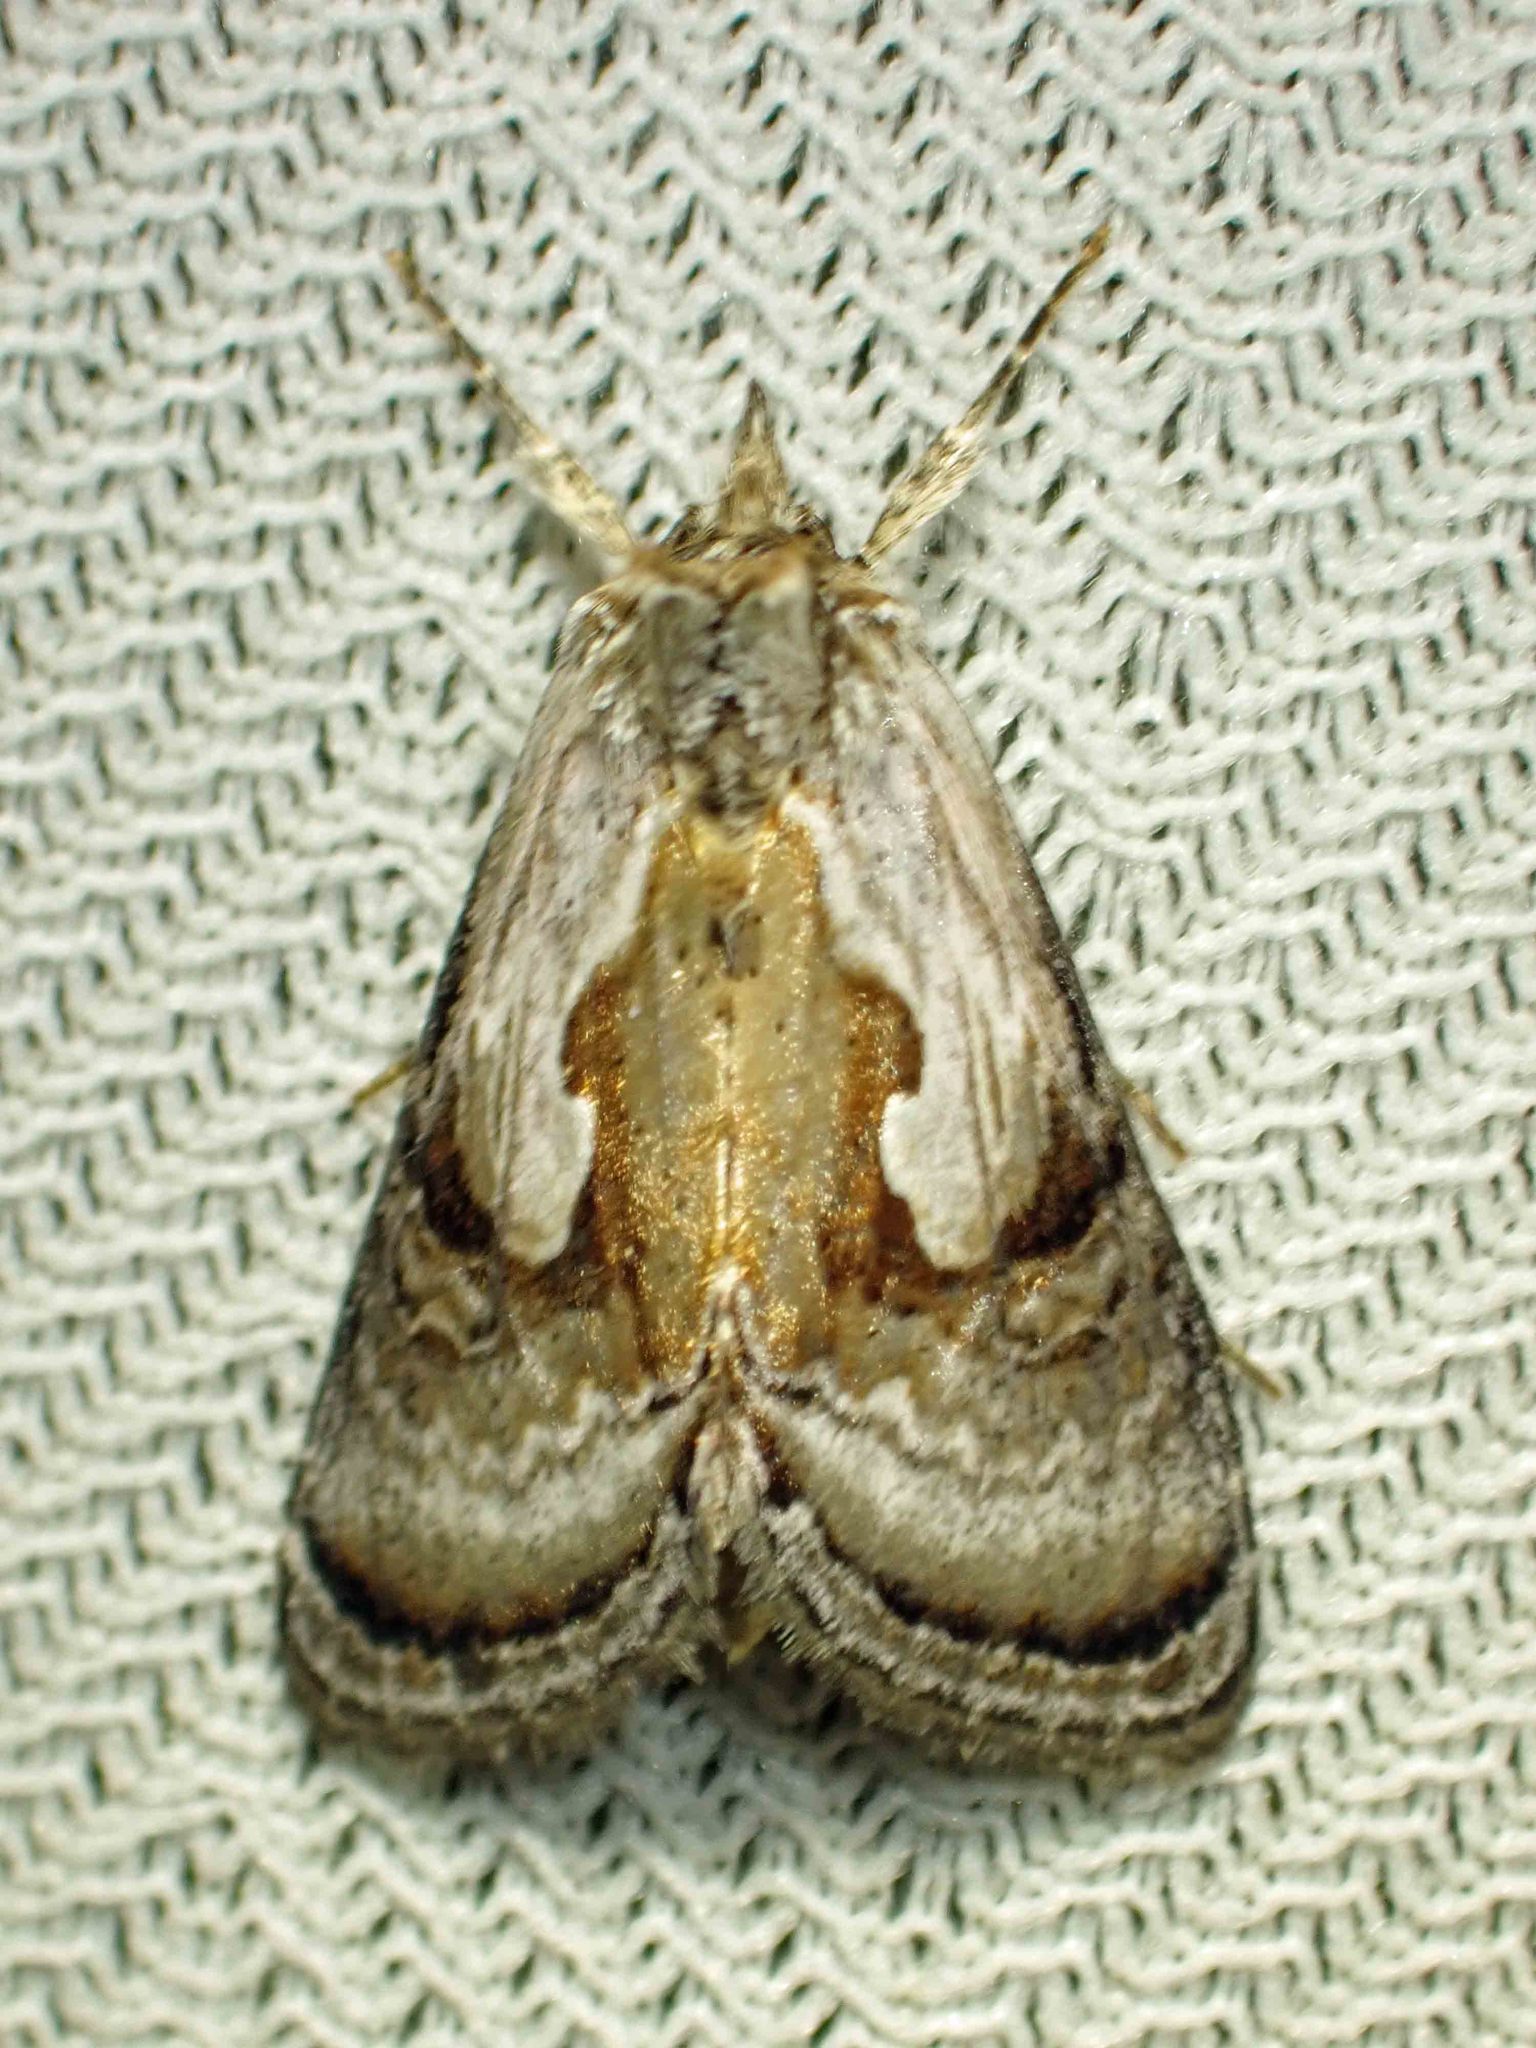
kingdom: Animalia
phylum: Arthropoda
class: Insecta
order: Lepidoptera
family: Noctuidae
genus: Chrysanympha
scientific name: Chrysanympha formosa
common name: Formosa looper moth
